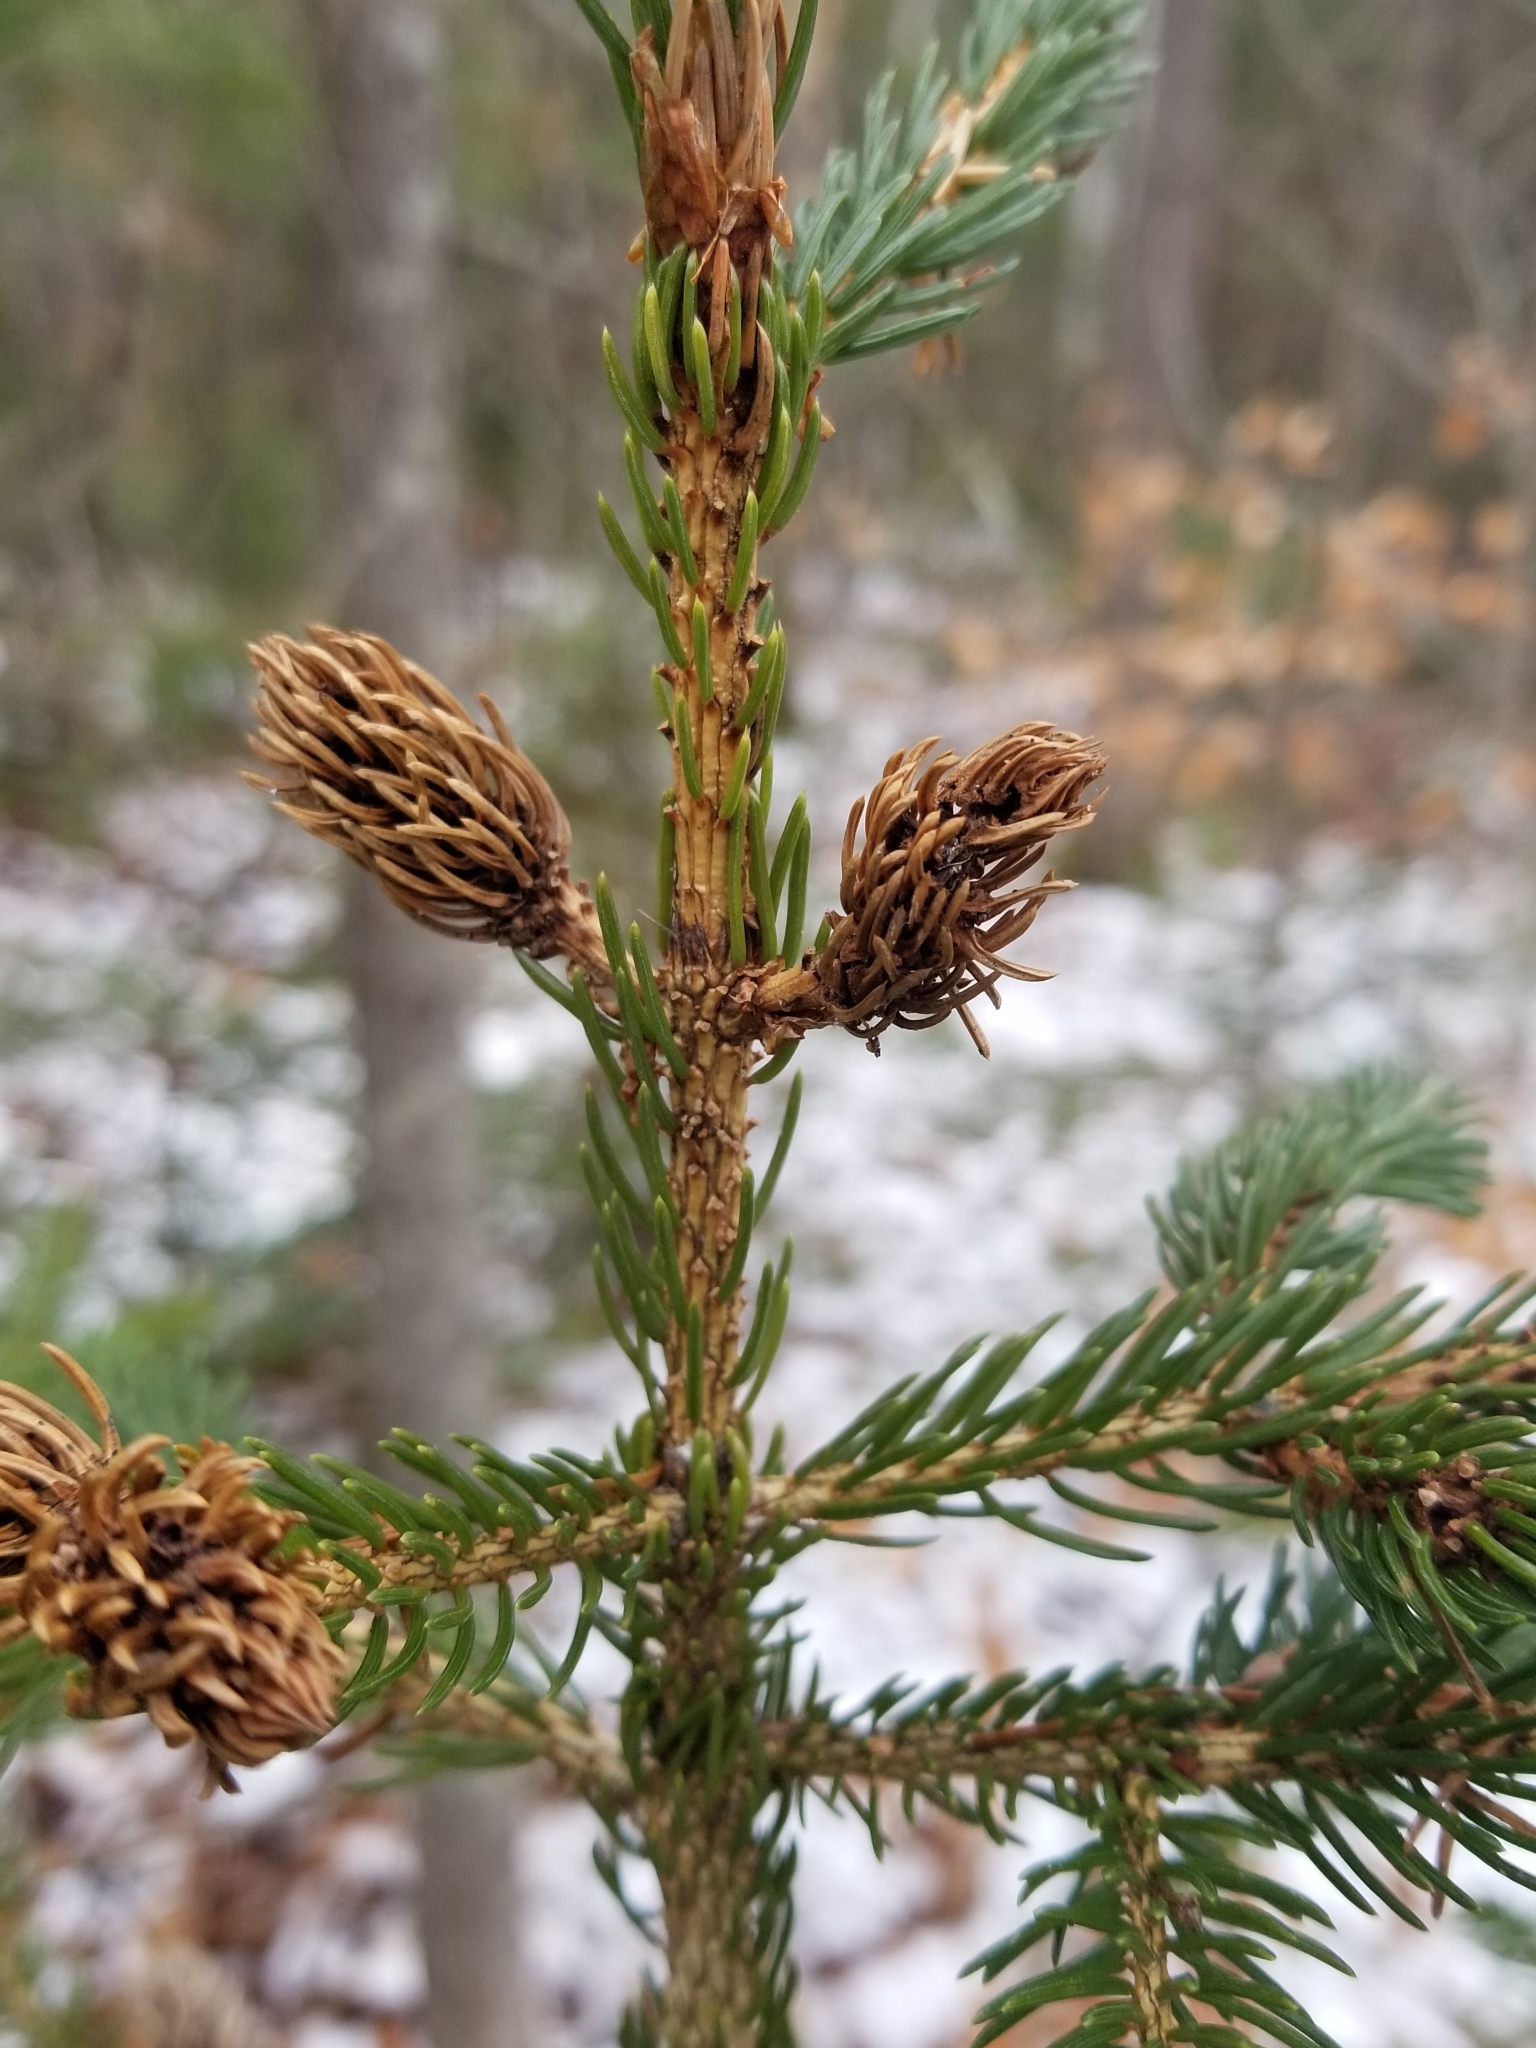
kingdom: Plantae
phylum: Tracheophyta
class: Pinopsida
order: Pinales
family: Pinaceae
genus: Picea
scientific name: Picea rubens
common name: Red spruce
